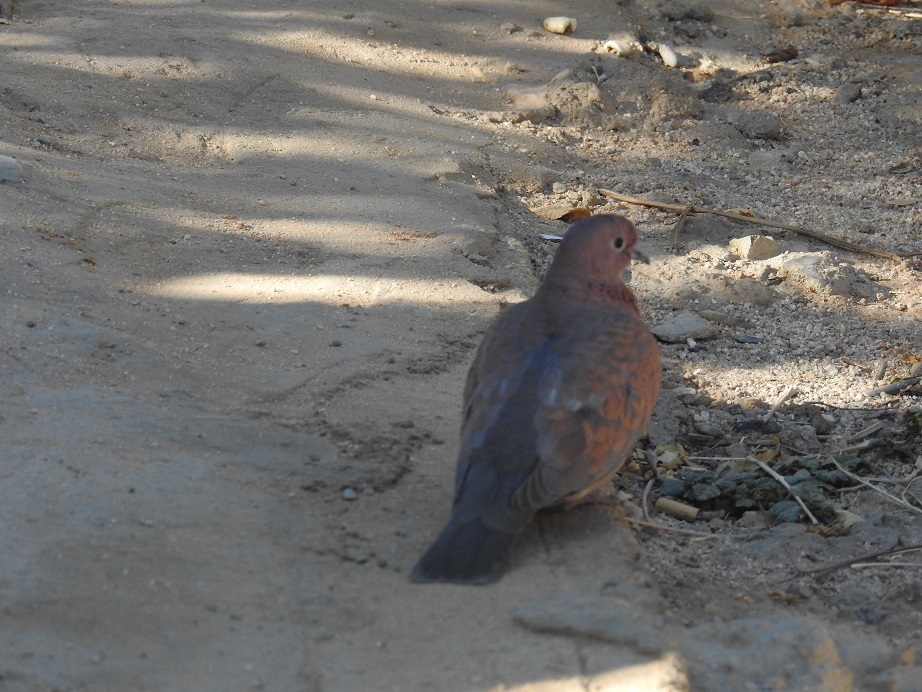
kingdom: Animalia
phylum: Chordata
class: Aves
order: Columbiformes
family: Columbidae
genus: Spilopelia
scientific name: Spilopelia senegalensis
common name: Laughing dove
